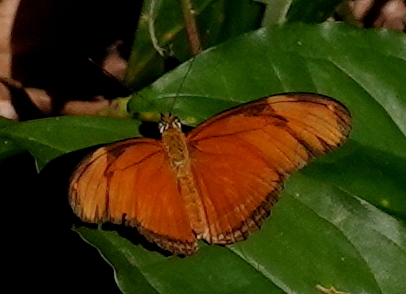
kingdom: Animalia
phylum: Arthropoda
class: Insecta
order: Lepidoptera
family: Nymphalidae
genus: Dryas
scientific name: Dryas iulia
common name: Flambeau
